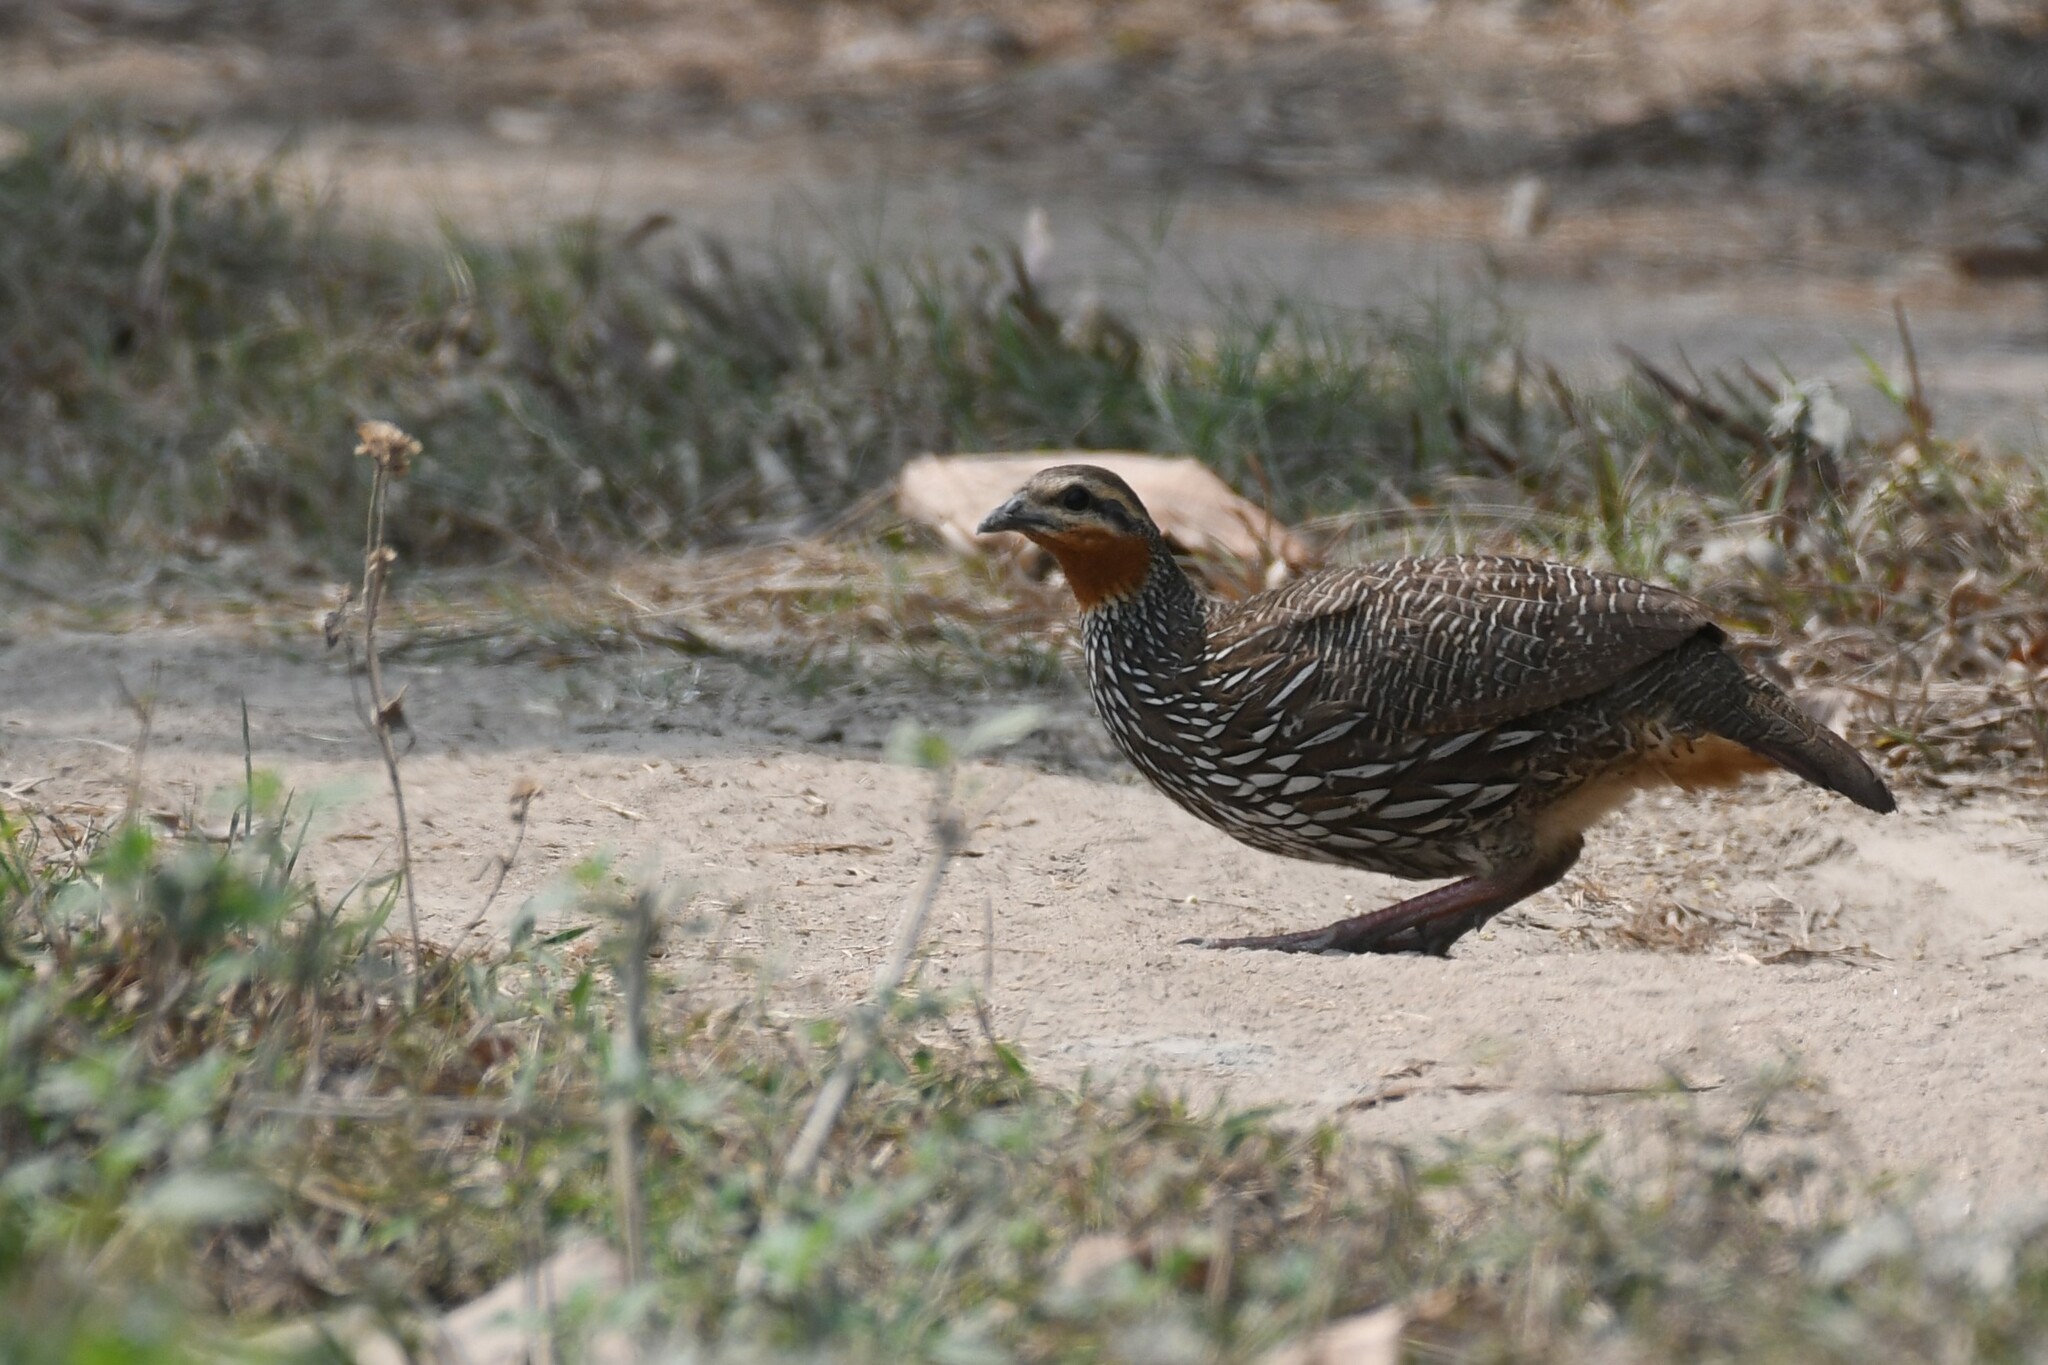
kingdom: Animalia
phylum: Chordata
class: Aves
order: Galliformes
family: Phasianidae
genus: Ortygornis
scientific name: Ortygornis gularis
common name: Swamp francolin
